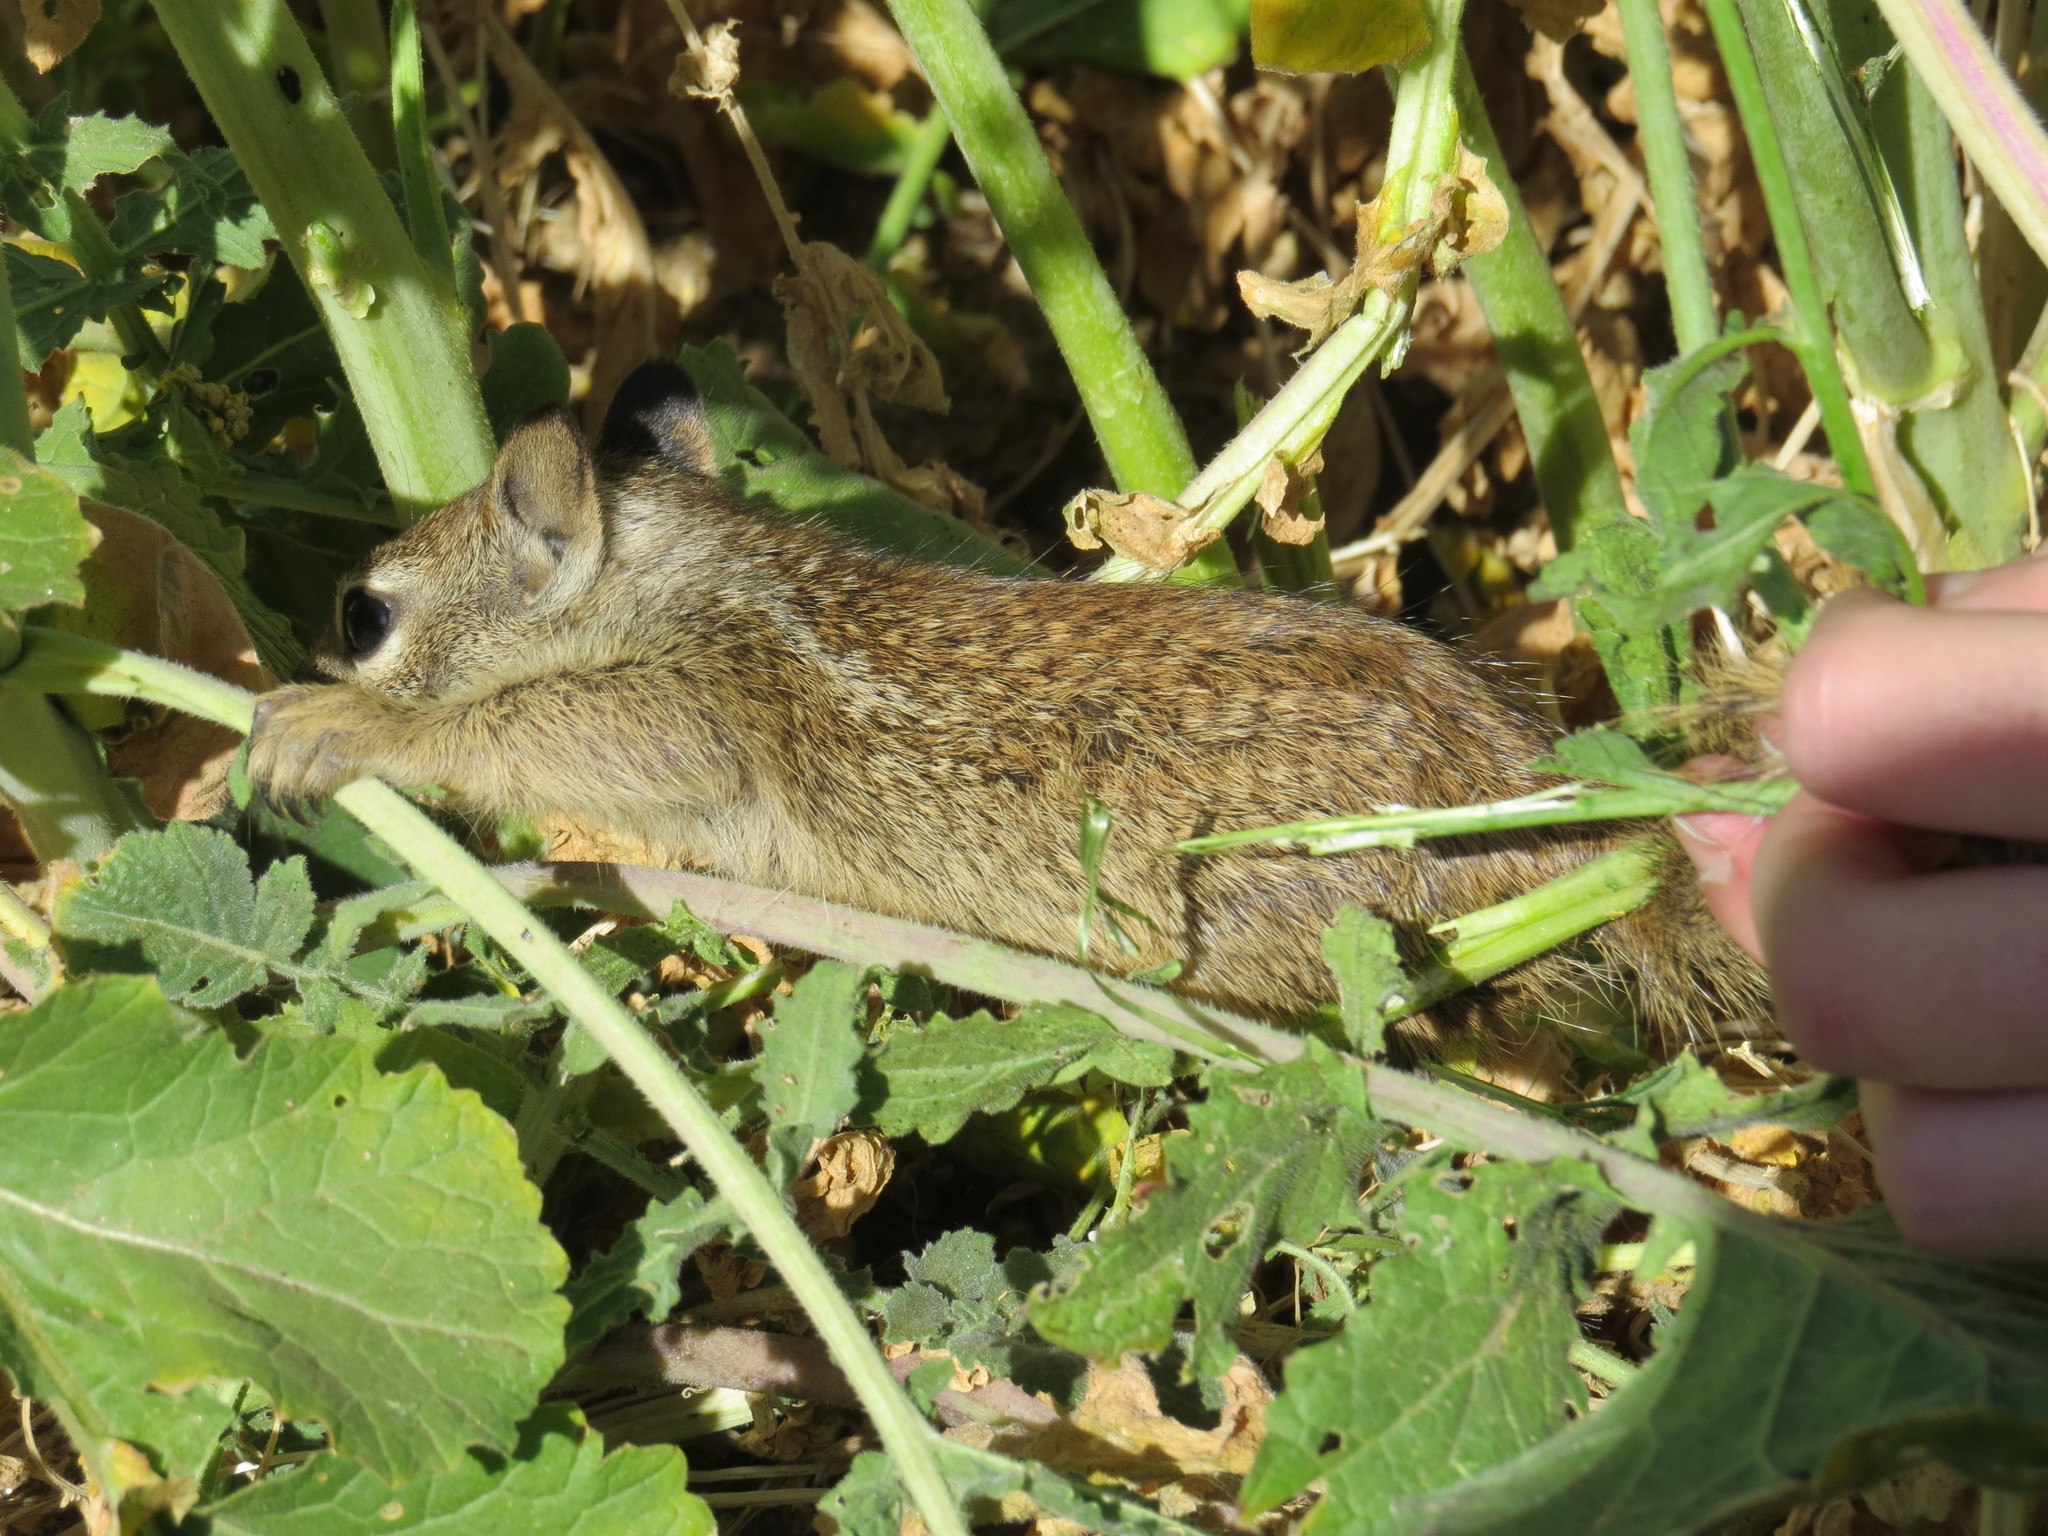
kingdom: Animalia
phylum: Chordata
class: Mammalia
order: Rodentia
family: Sciuridae
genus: Otospermophilus
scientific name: Otospermophilus beecheyi
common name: California ground squirrel
